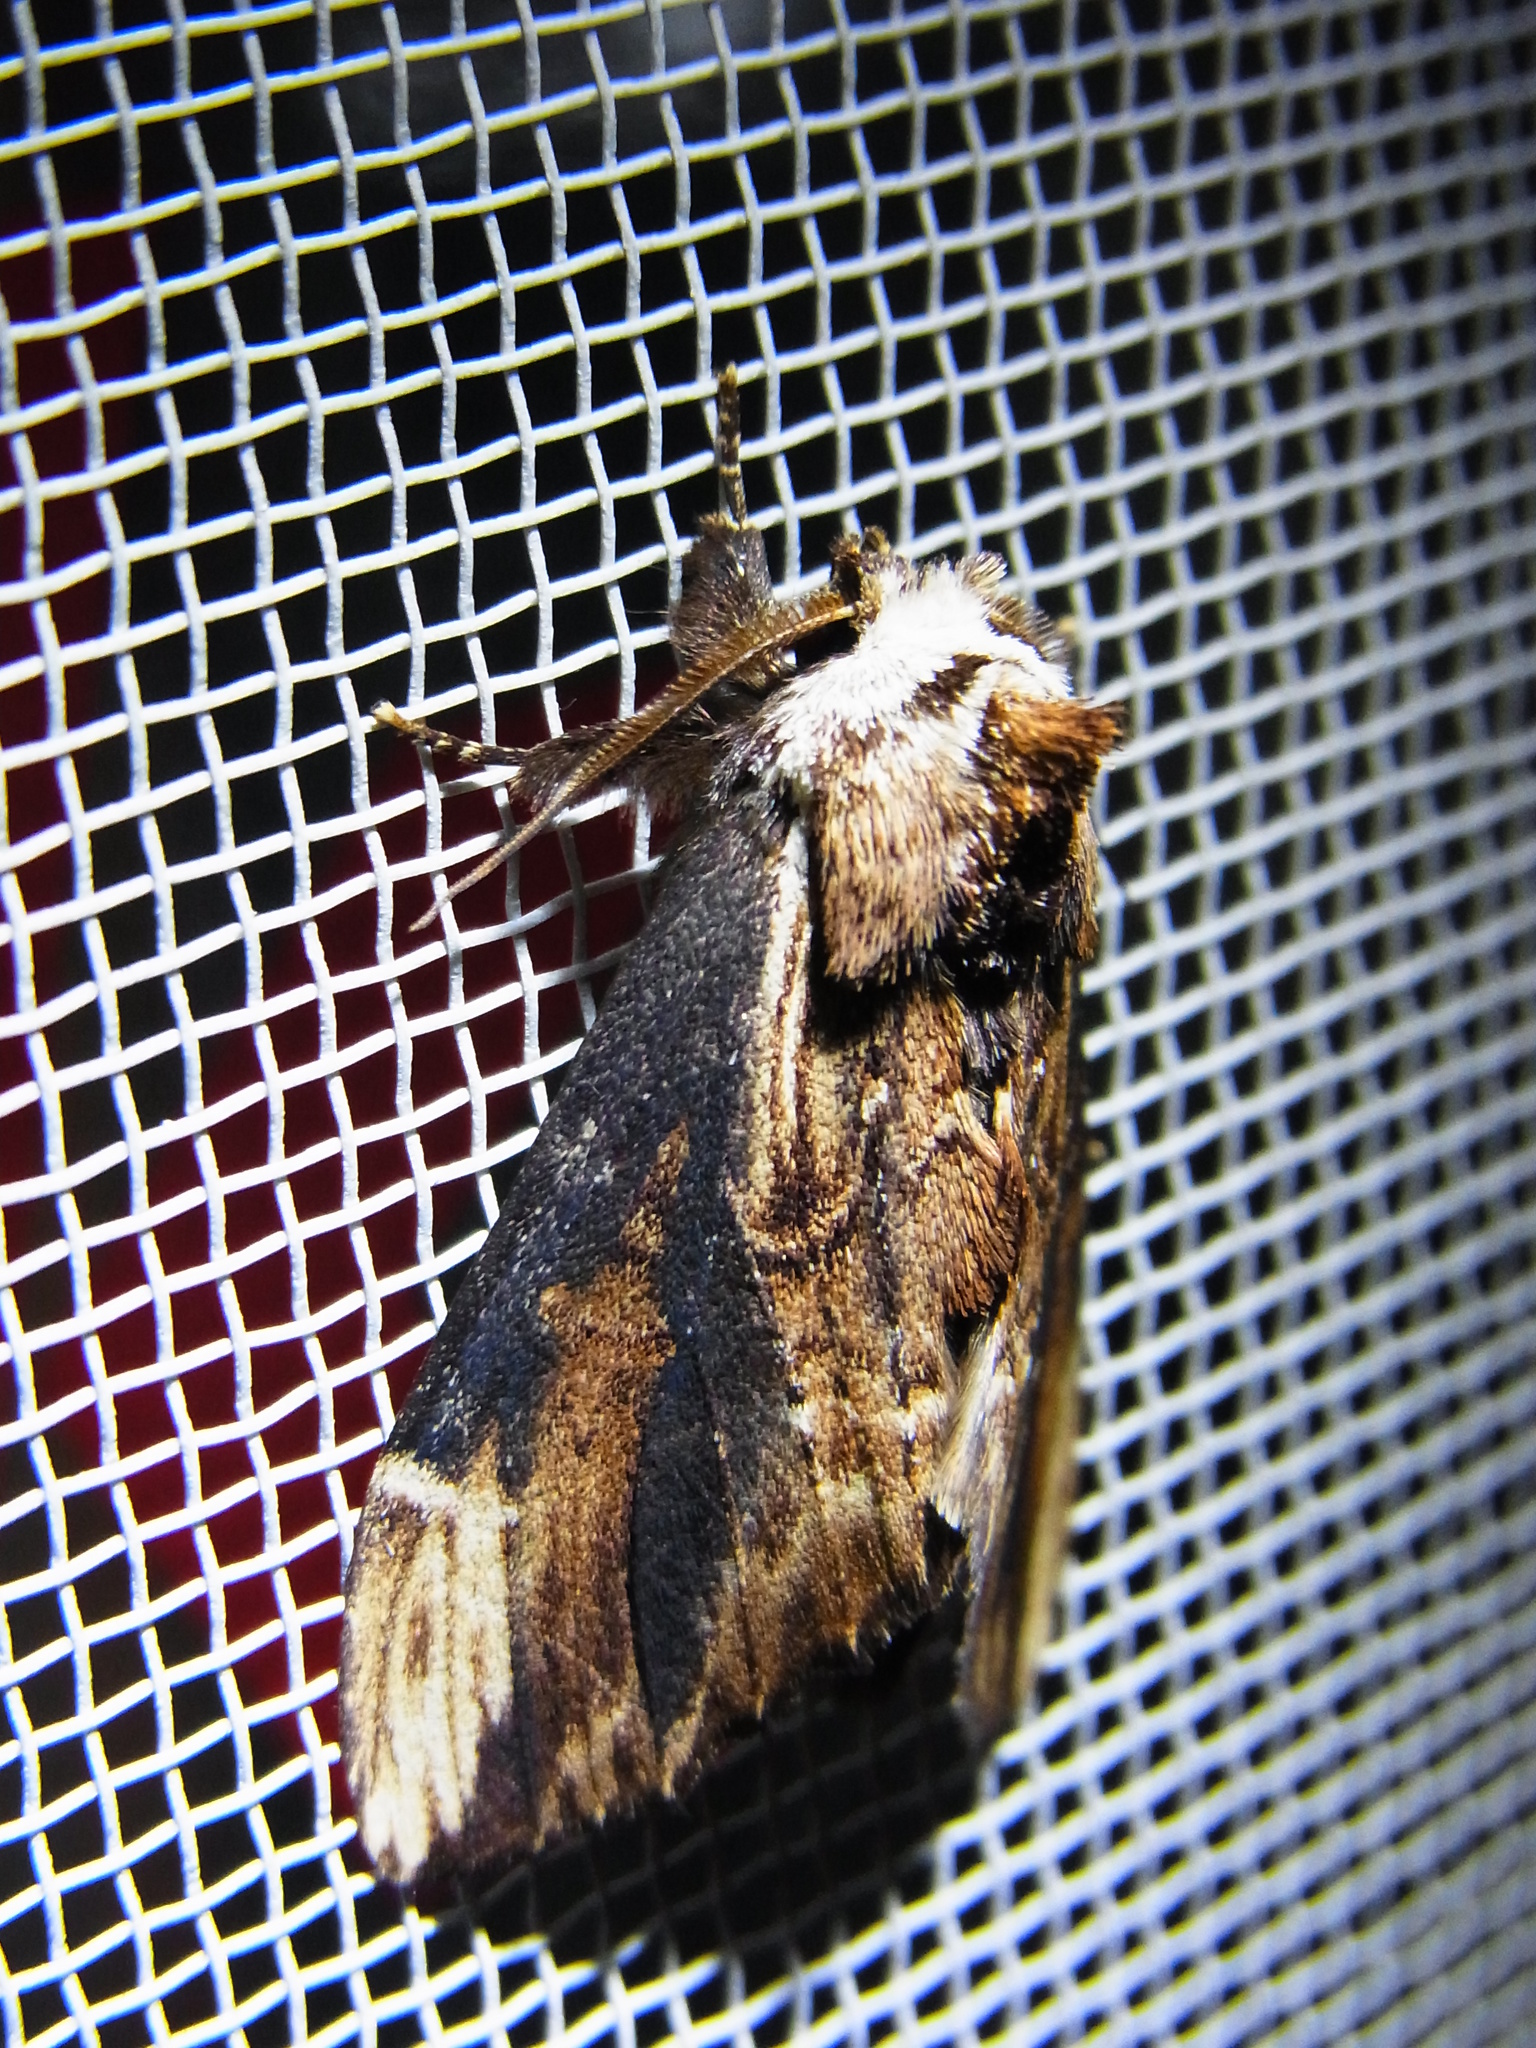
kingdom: Animalia
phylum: Arthropoda
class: Insecta
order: Lepidoptera
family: Notodontidae
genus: Hexafrenum
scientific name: Hexafrenum leucodera
